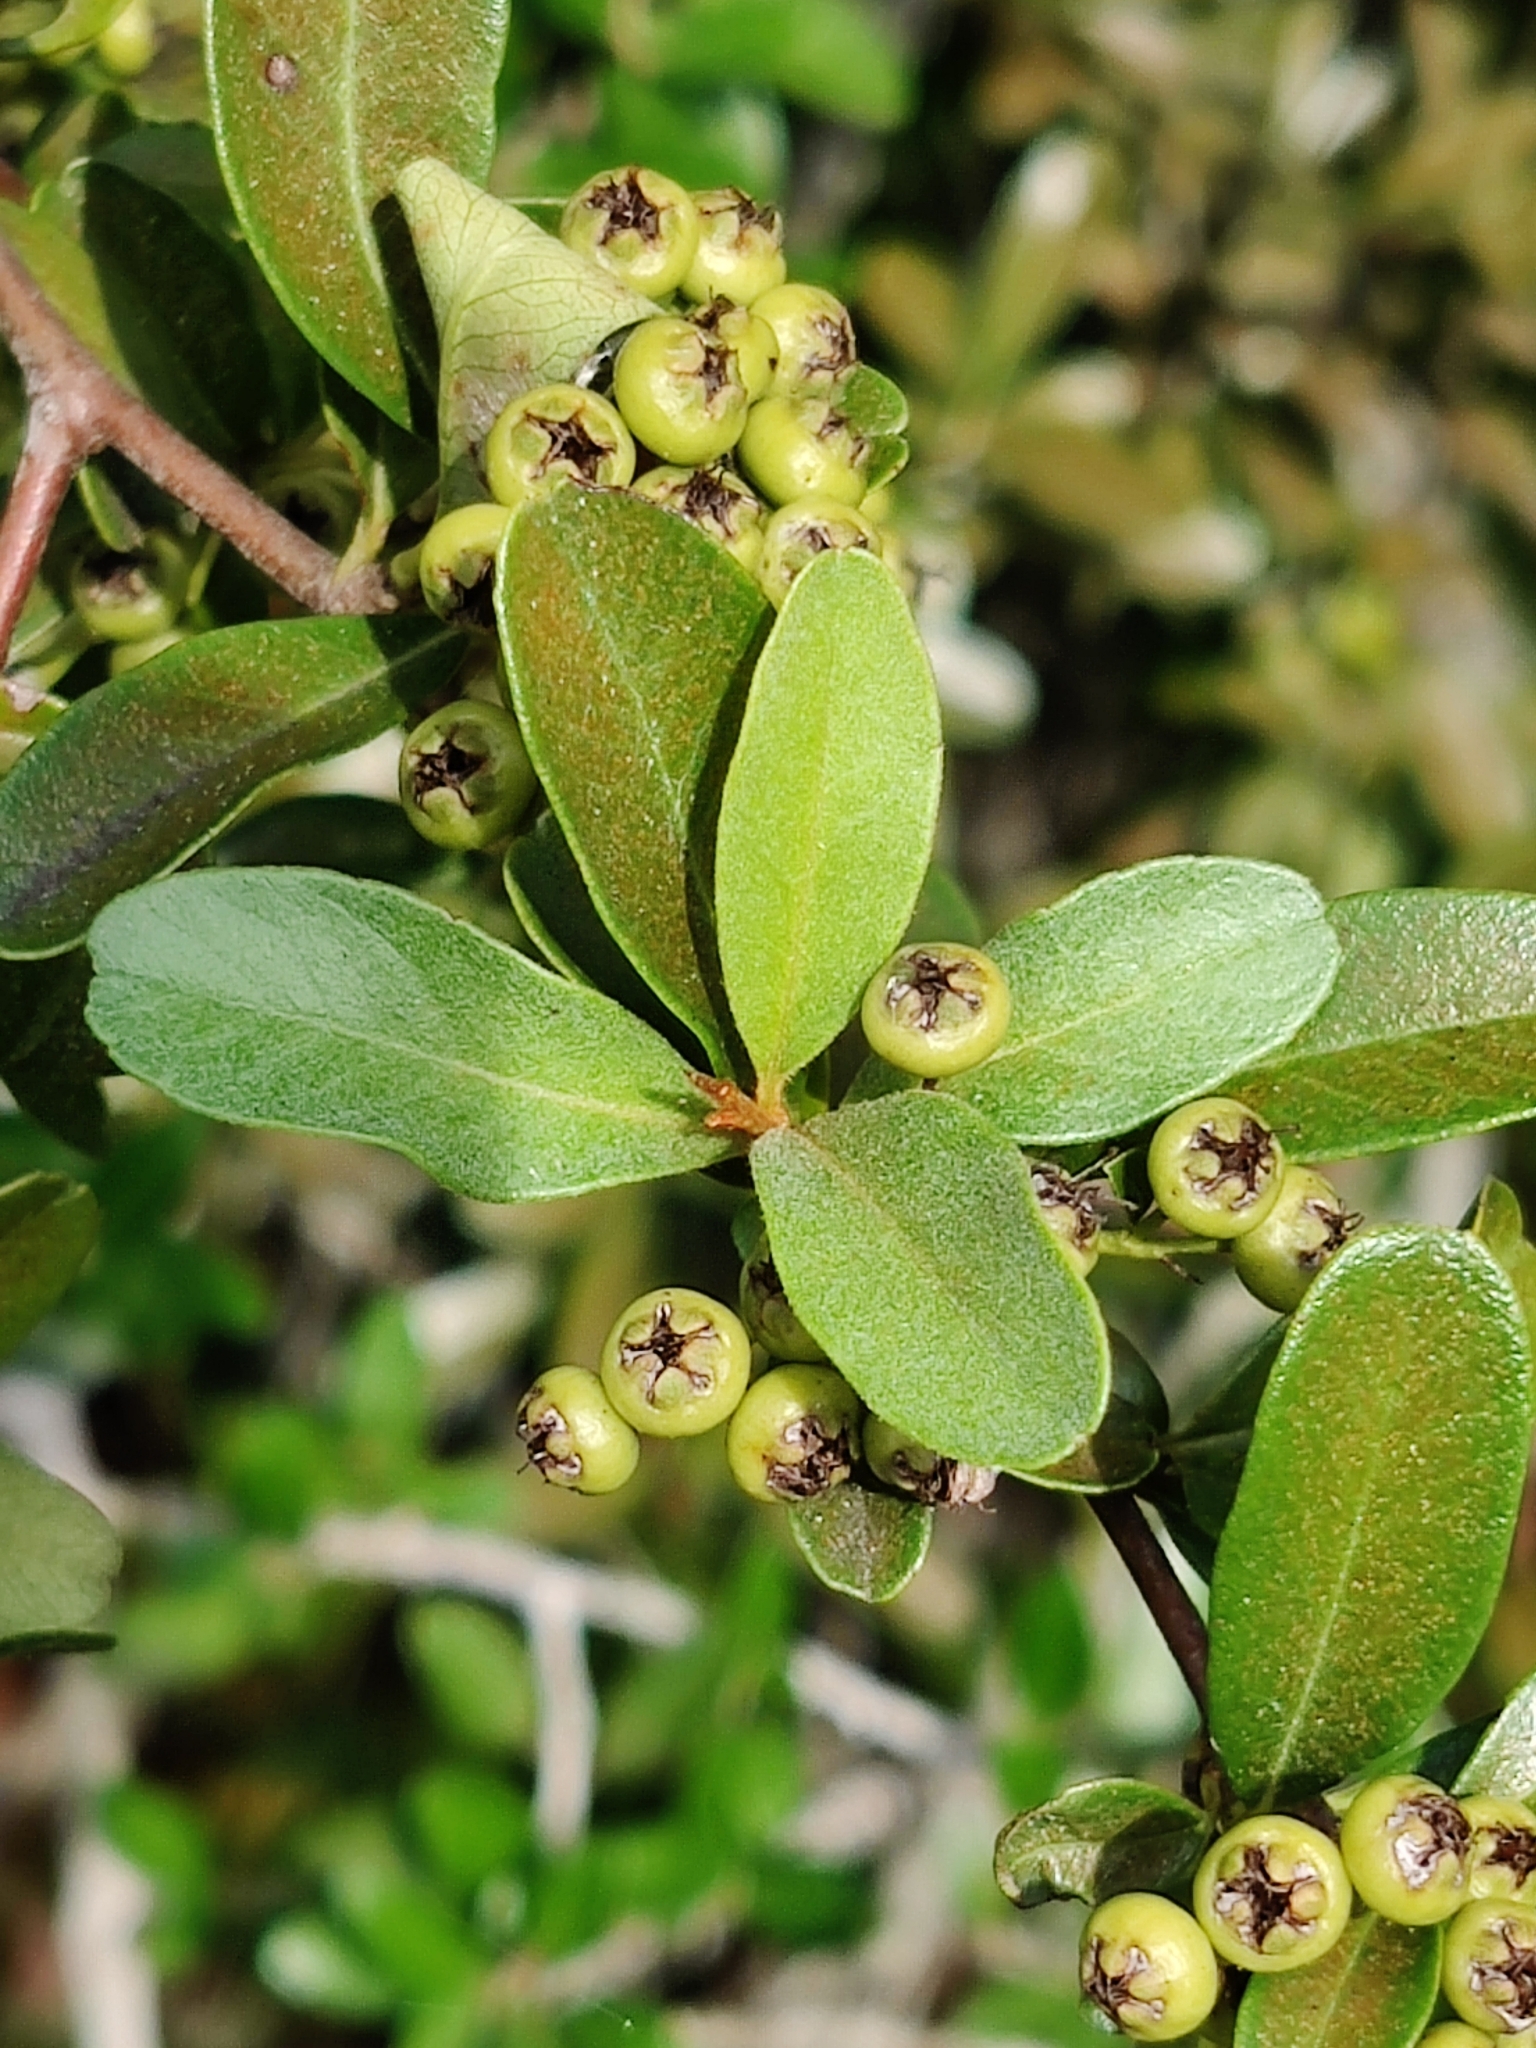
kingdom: Plantae
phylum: Tracheophyta
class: Magnoliopsida
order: Rosales
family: Rosaceae
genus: Pyracantha
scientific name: Pyracantha koidzumii
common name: Formosa firethorn
